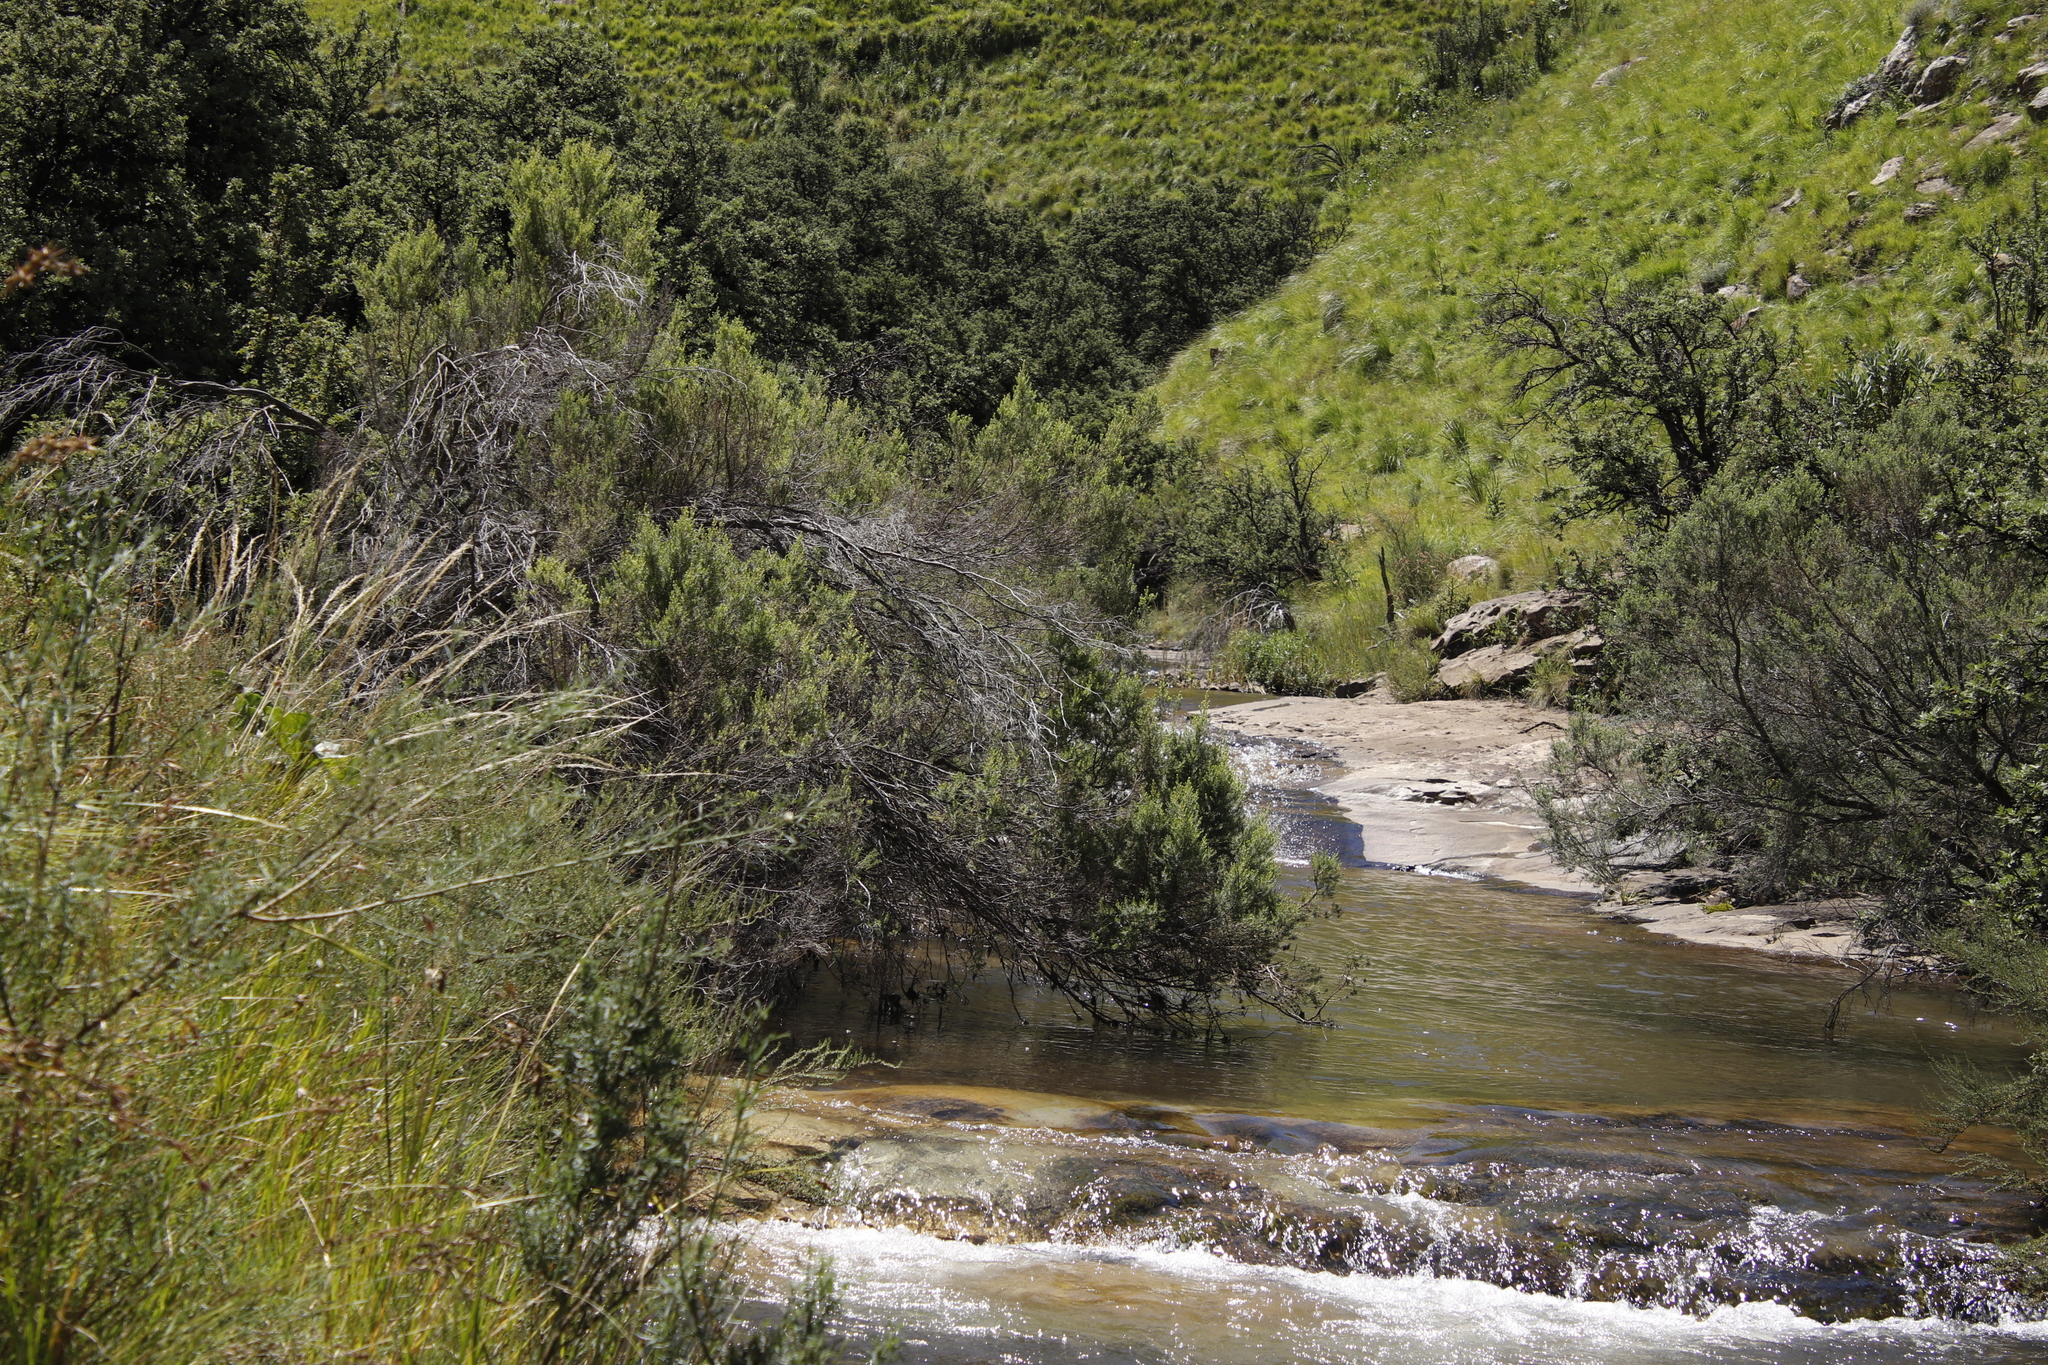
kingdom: Plantae
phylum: Tracheophyta
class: Magnoliopsida
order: Ericales
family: Ericaceae
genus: Erica
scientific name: Erica caffra
